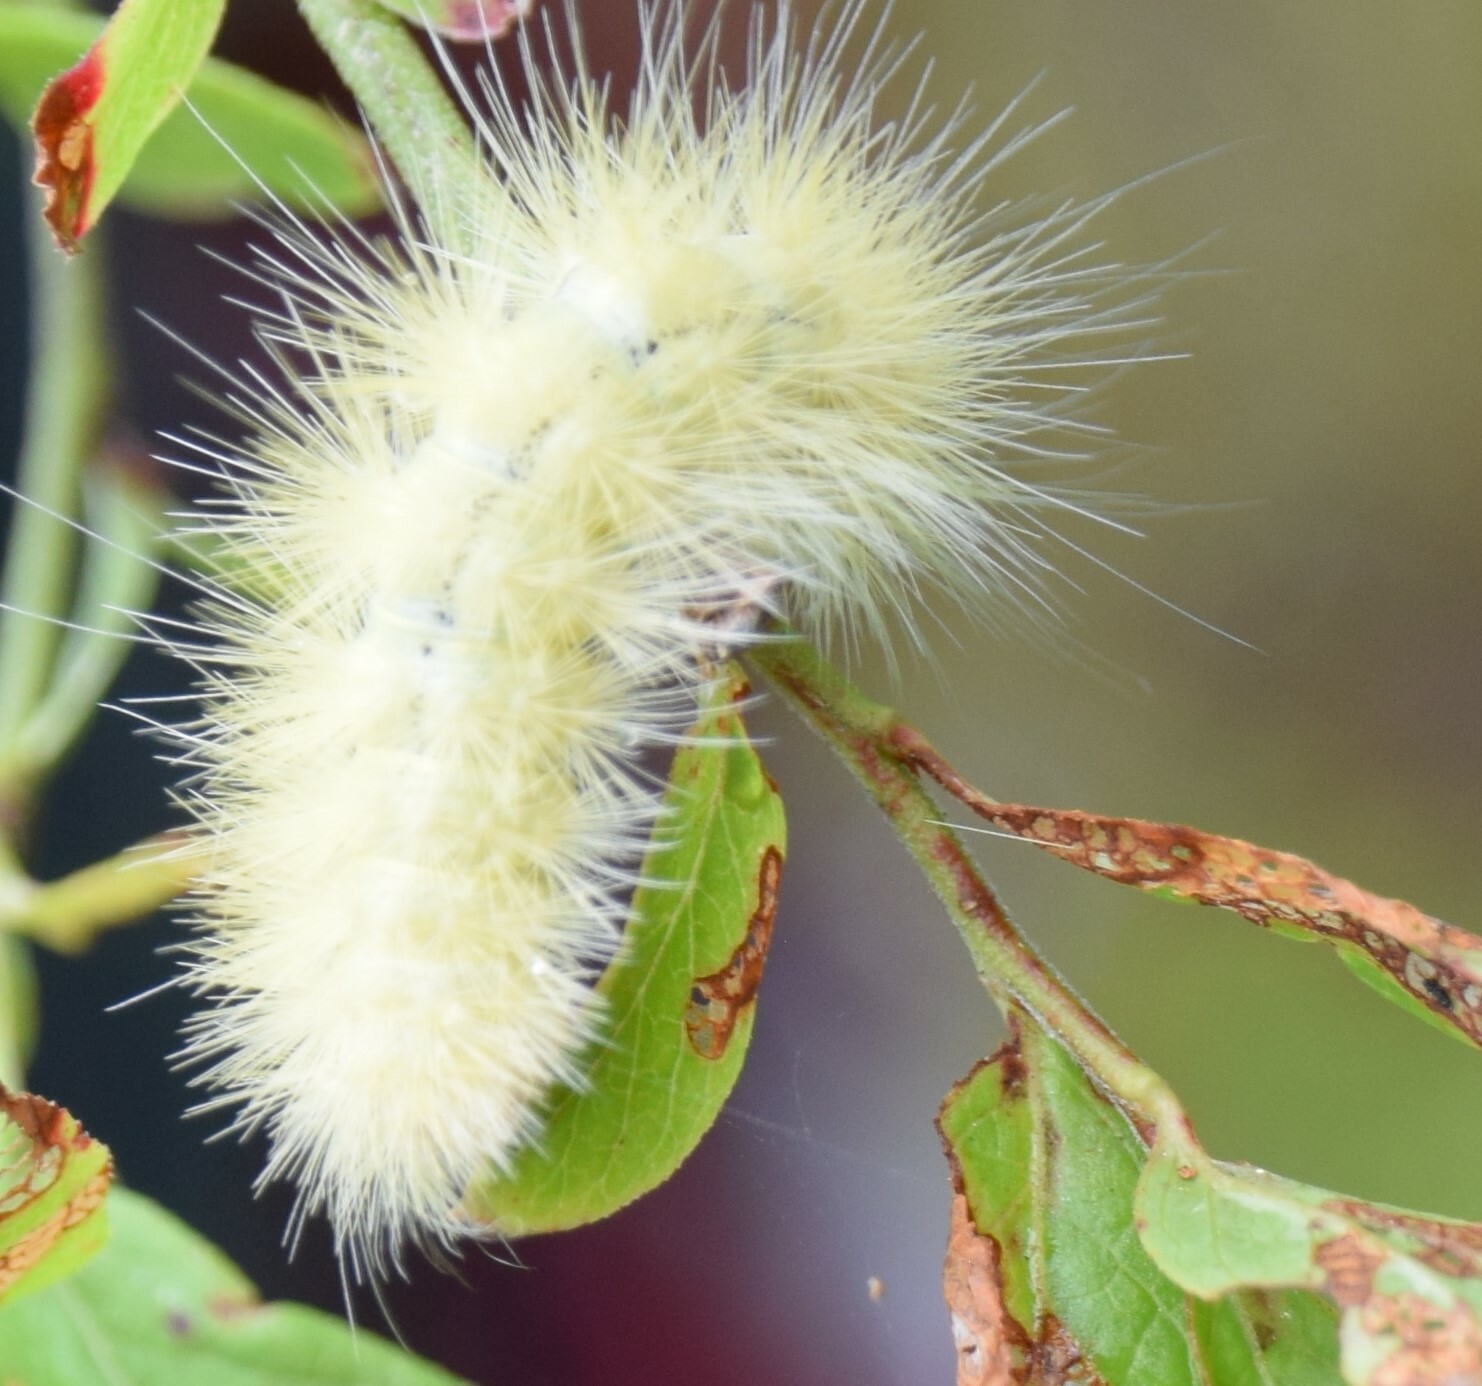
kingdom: Animalia
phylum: Arthropoda
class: Insecta
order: Lepidoptera
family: Erebidae
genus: Spilosoma
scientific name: Spilosoma virginica
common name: Virginia tiger moth
